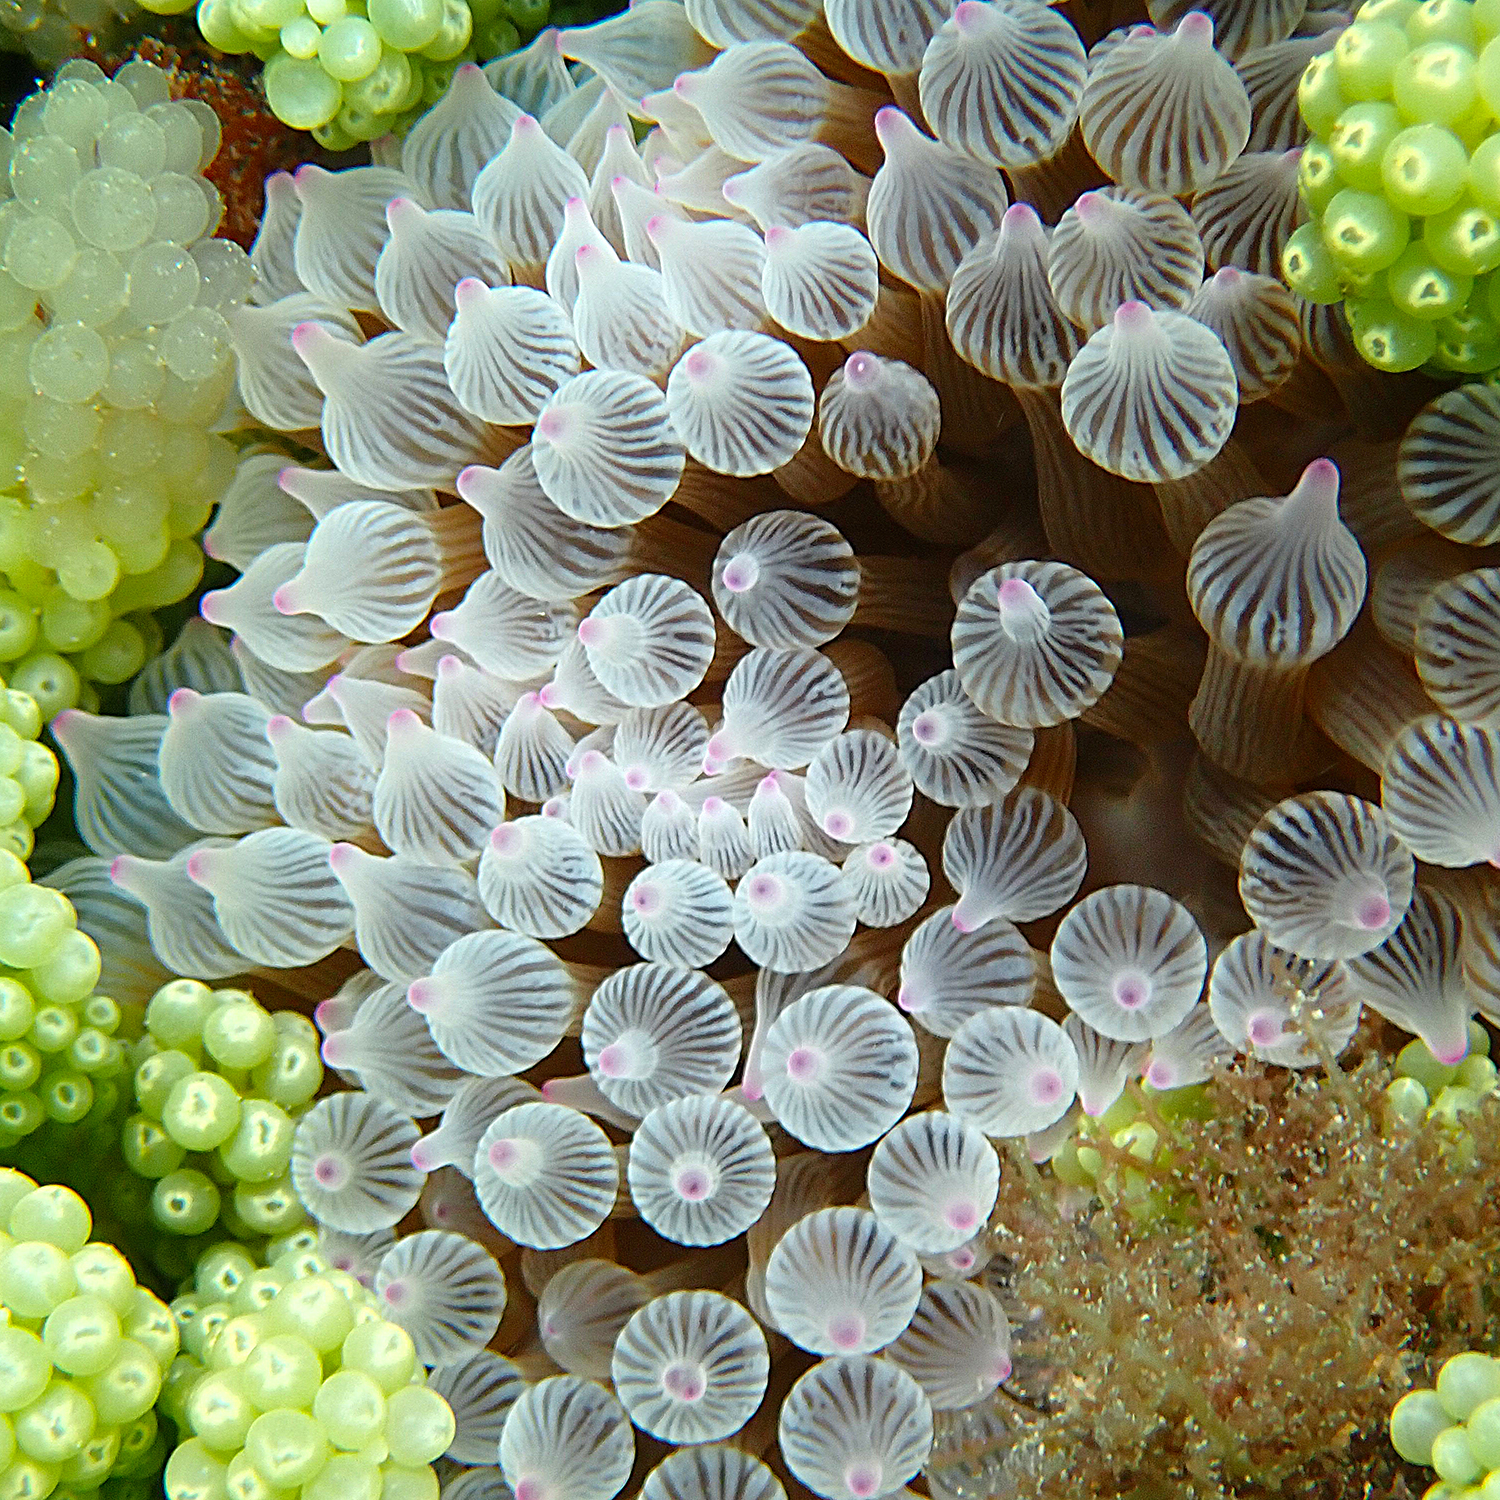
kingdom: Animalia
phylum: Cnidaria
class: Anthozoa
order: Actiniaria
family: Actiniidae
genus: Entacmaea
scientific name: Entacmaea quadricolor
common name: Bulb tentacle sea anemone
